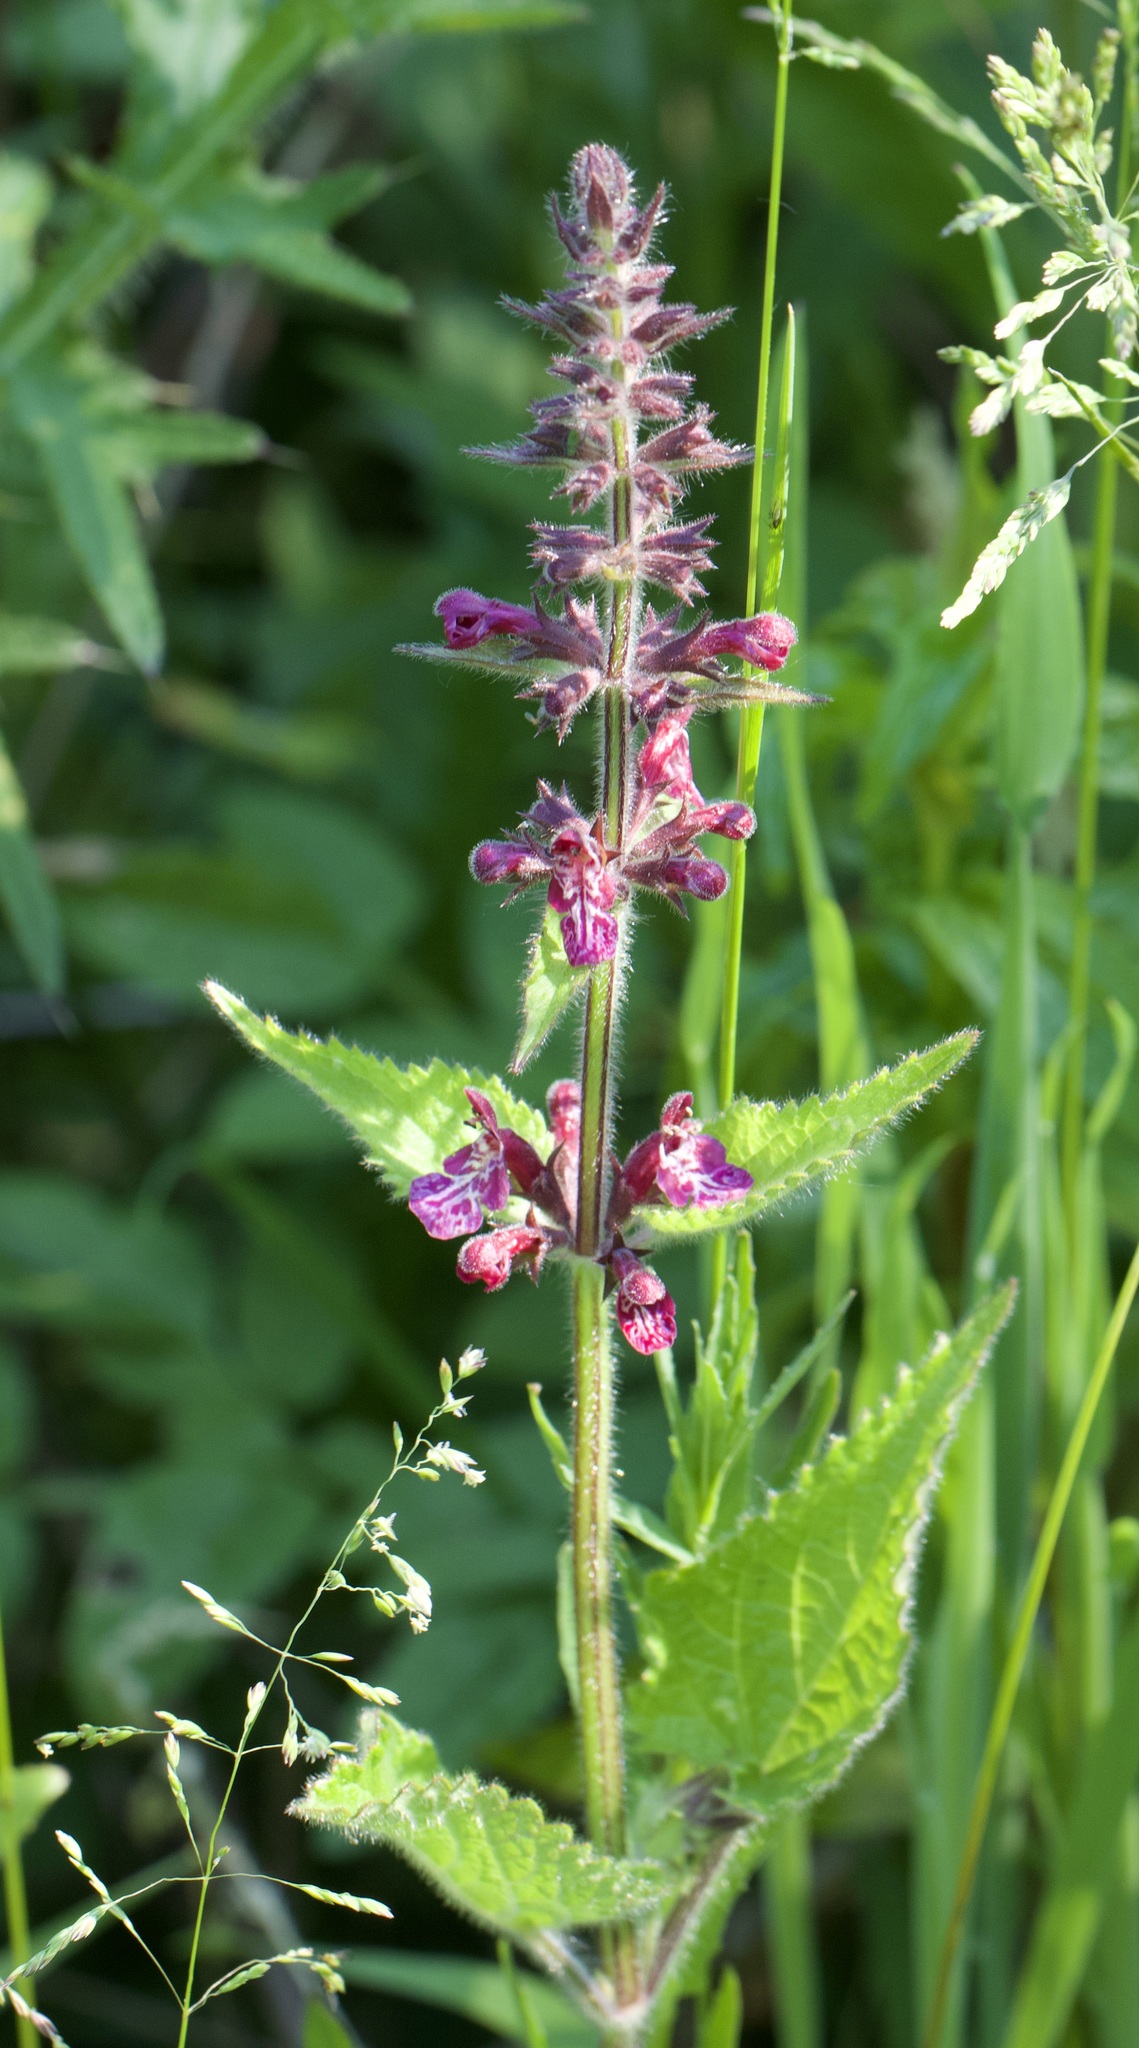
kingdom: Plantae
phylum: Tracheophyta
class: Magnoliopsida
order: Lamiales
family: Lamiaceae
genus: Stachys
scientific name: Stachys sylvatica
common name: Hedge woundwort
